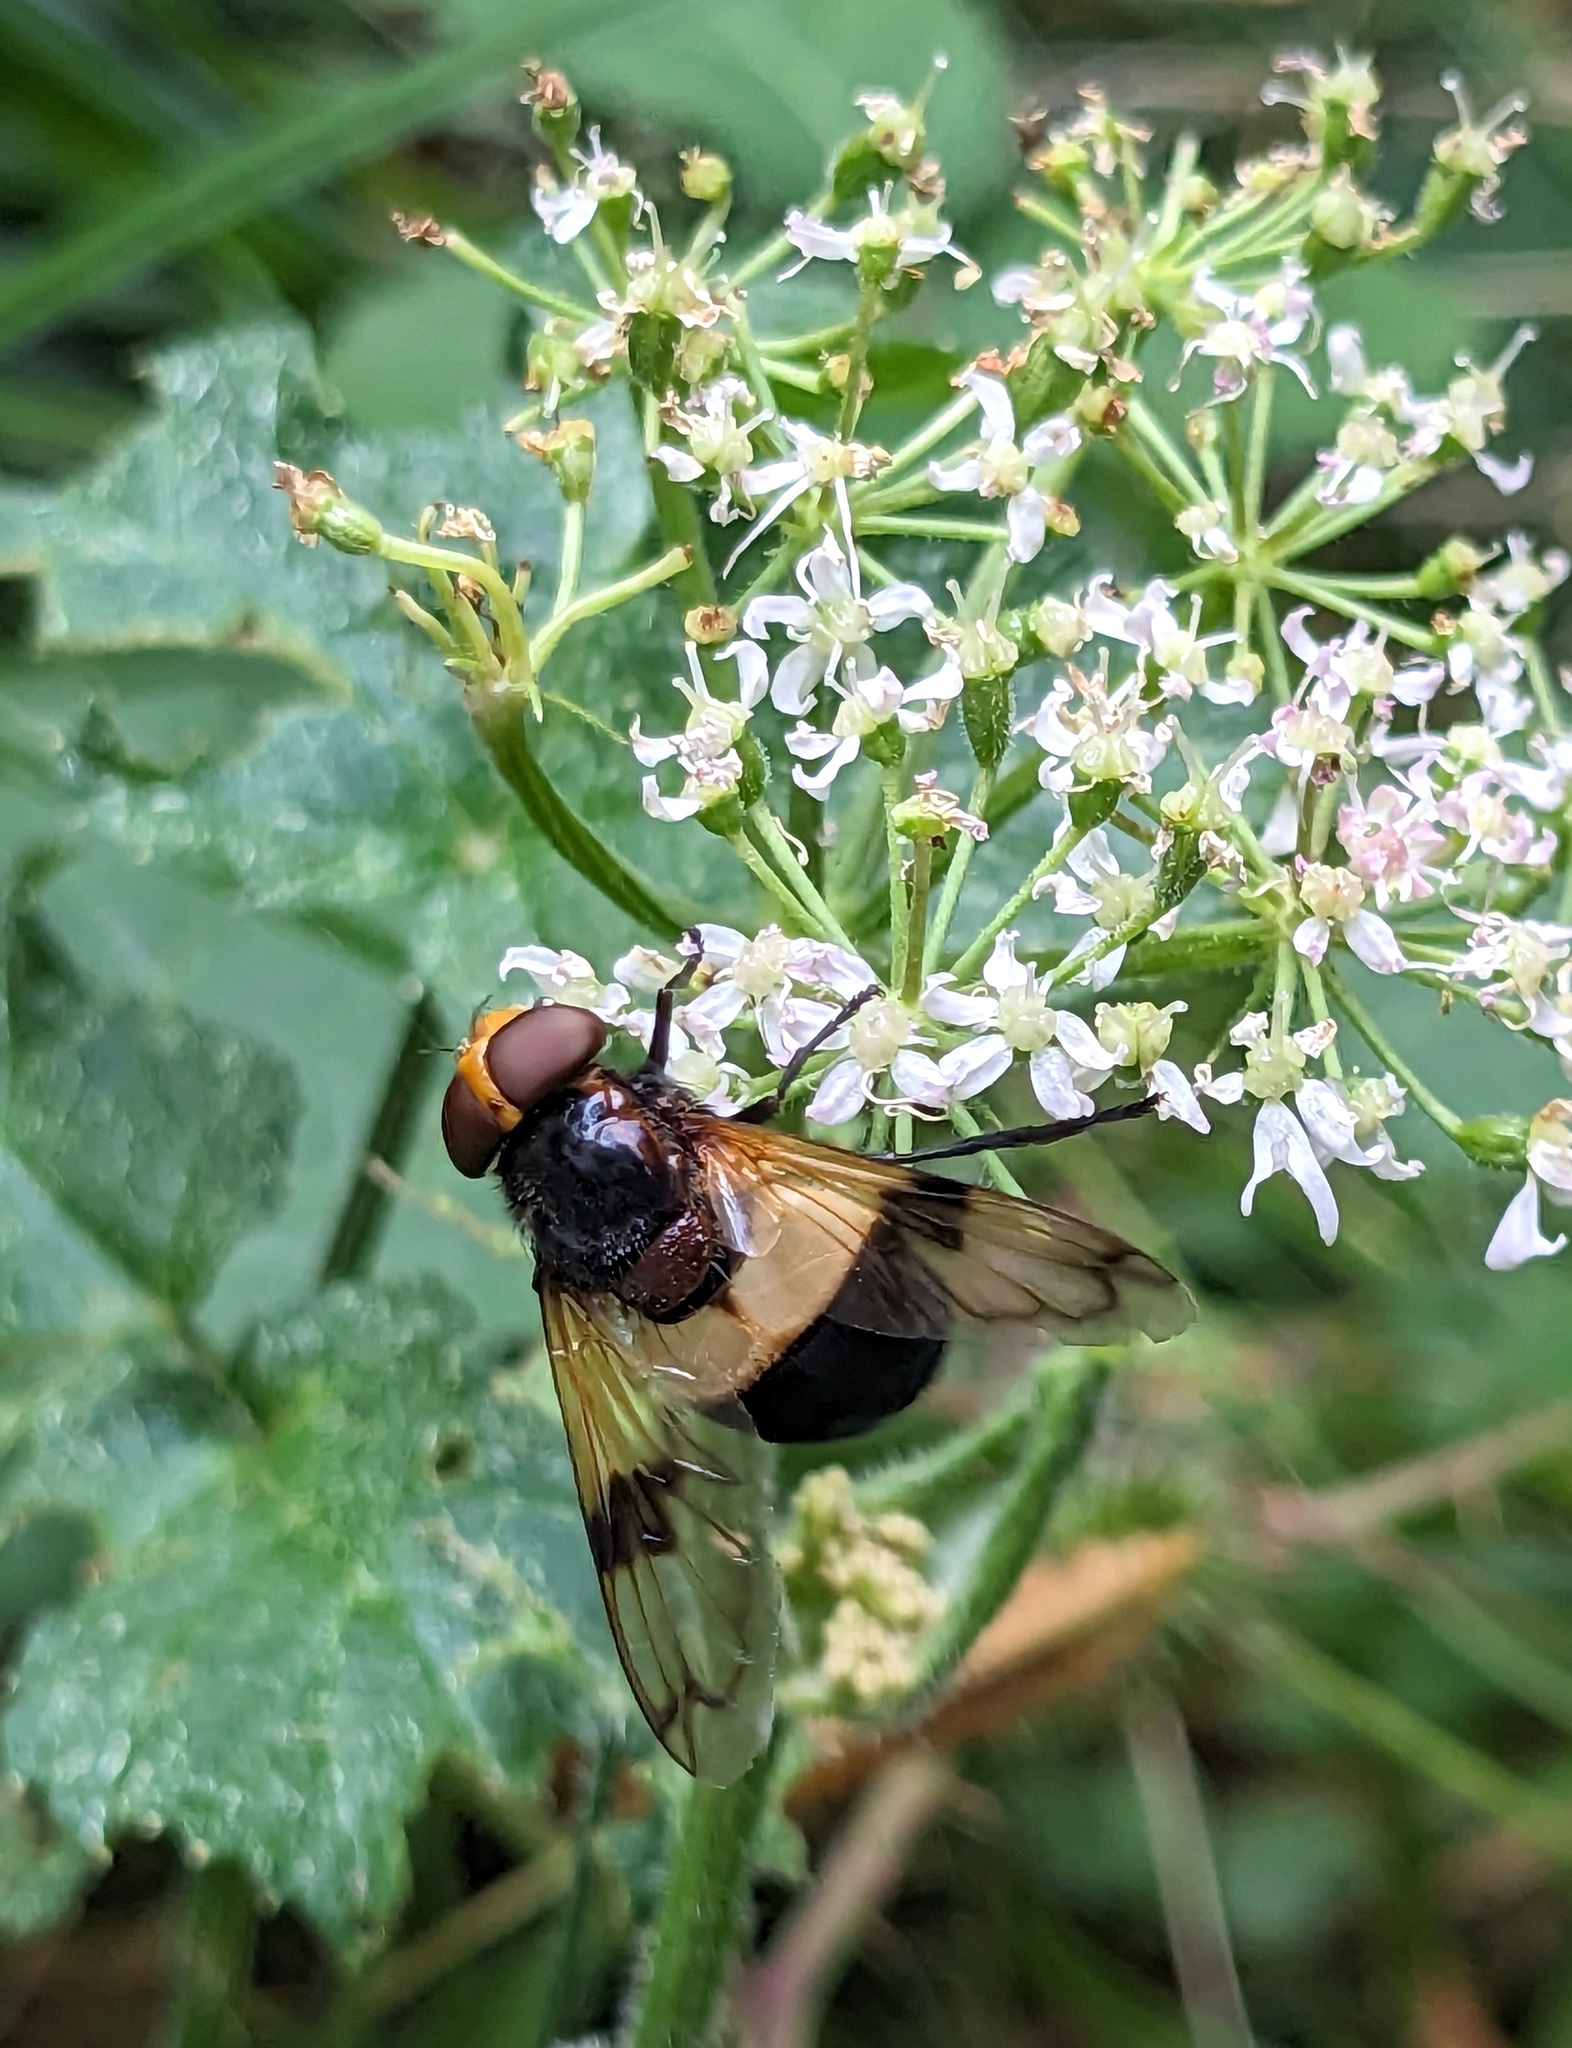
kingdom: Animalia
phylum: Arthropoda
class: Insecta
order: Diptera
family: Syrphidae
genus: Volucella
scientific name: Volucella pellucens
